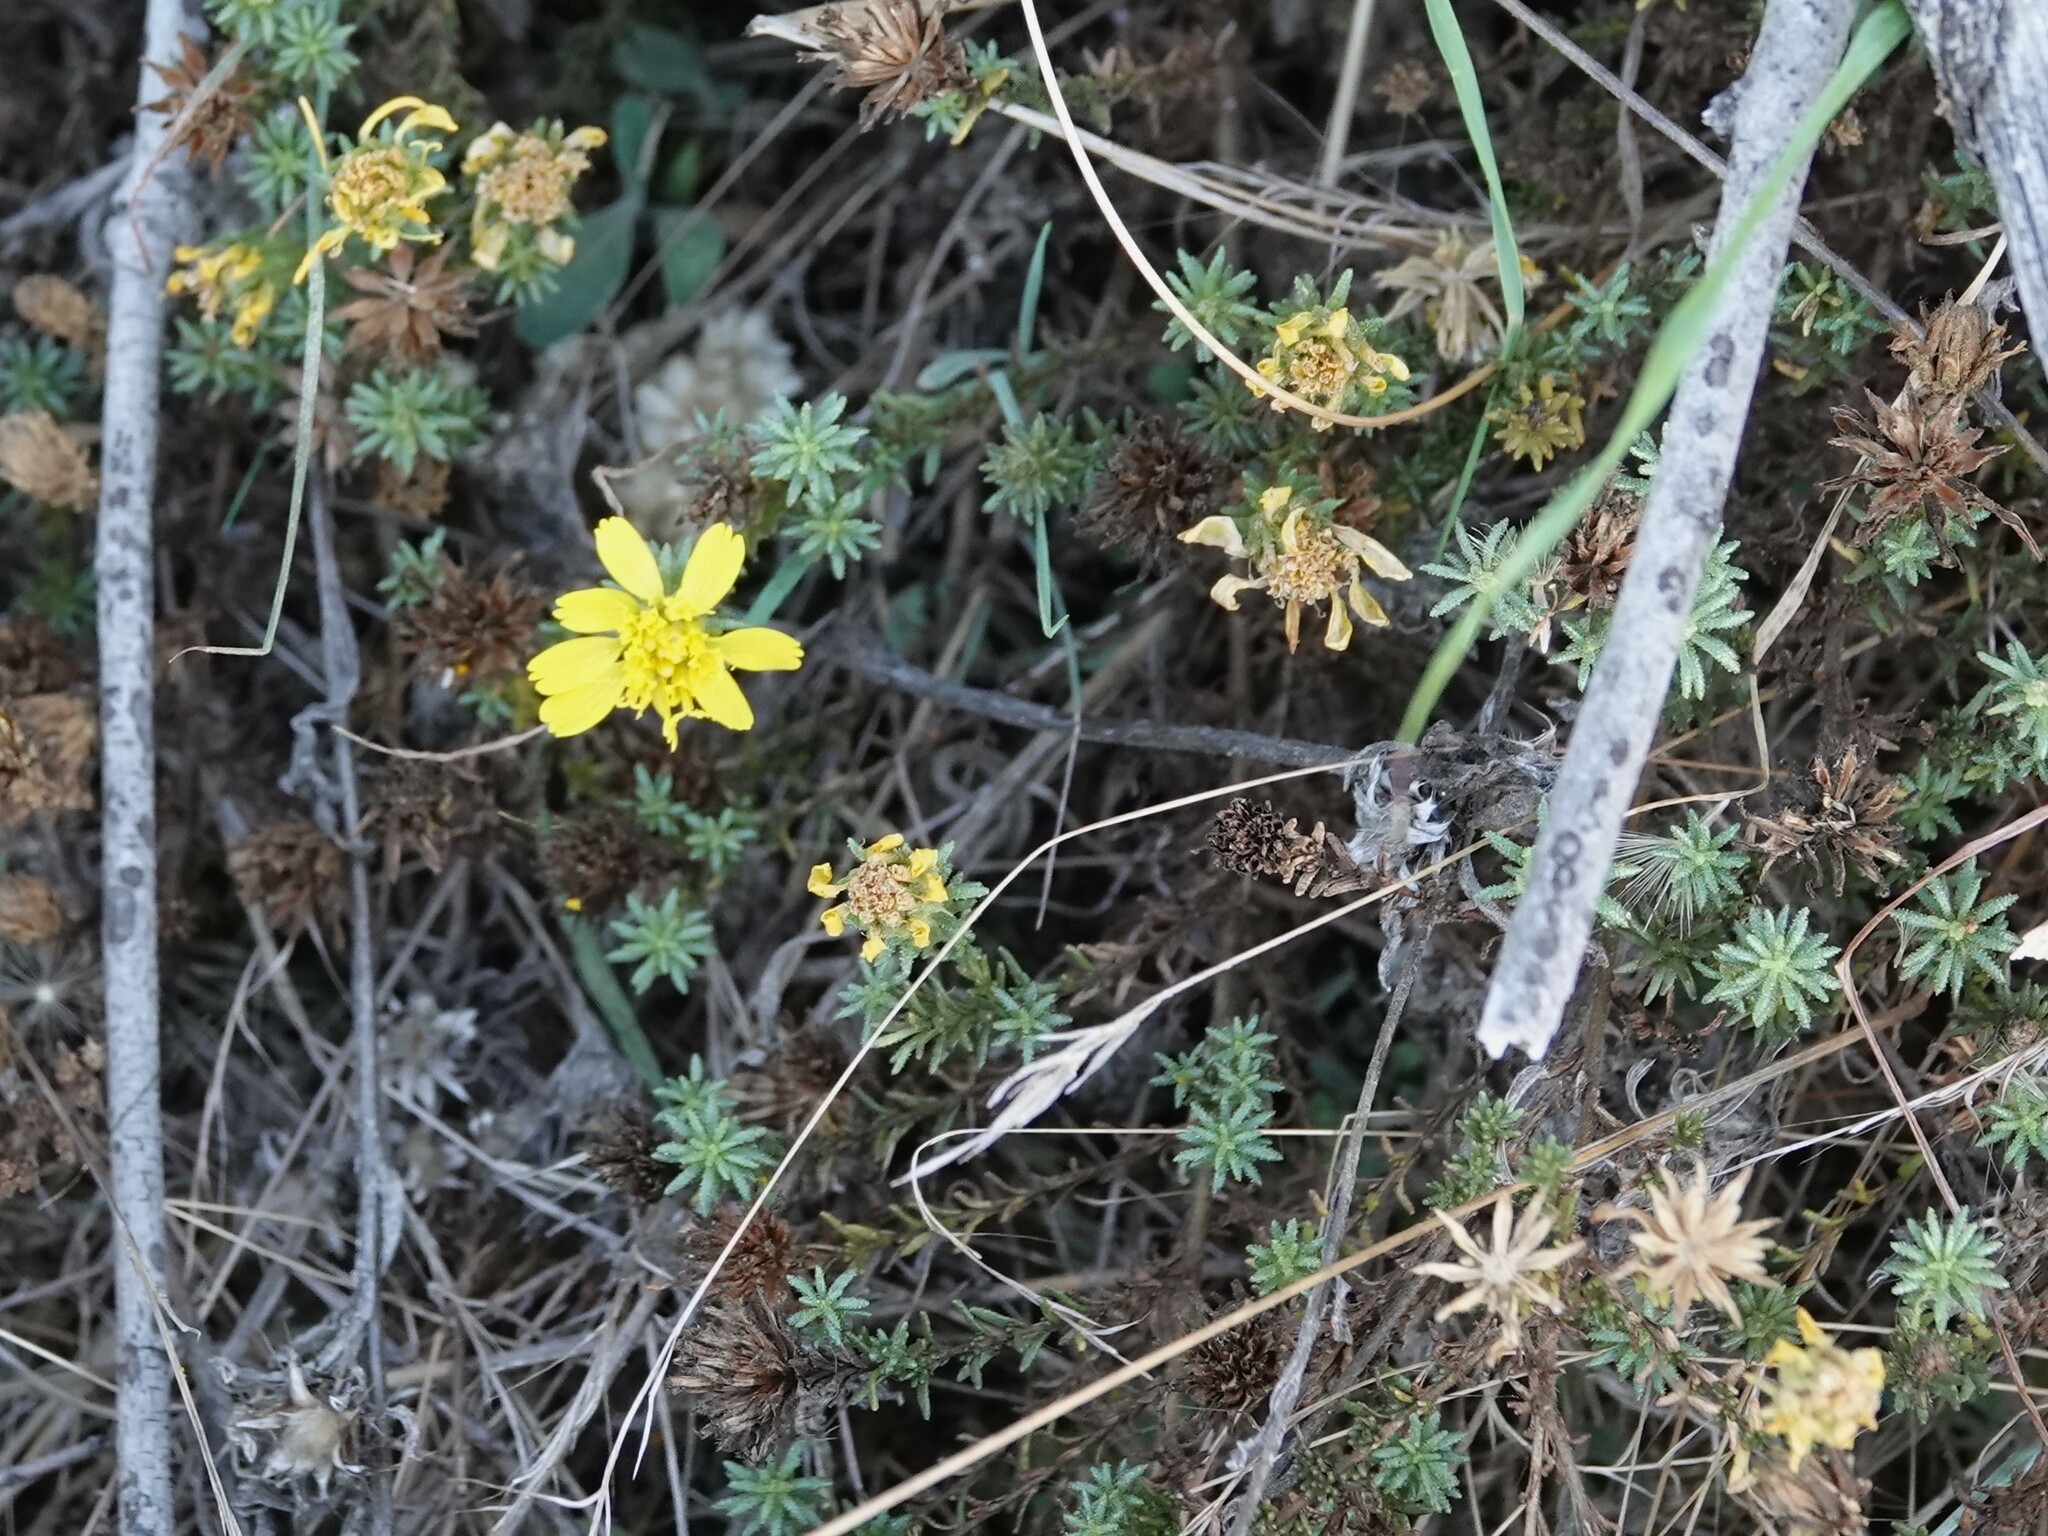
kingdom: Plantae
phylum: Tracheophyta
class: Magnoliopsida
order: Asterales
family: Asteraceae
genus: Deinandra
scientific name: Deinandra minthornii
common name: Santa susana tarplant
